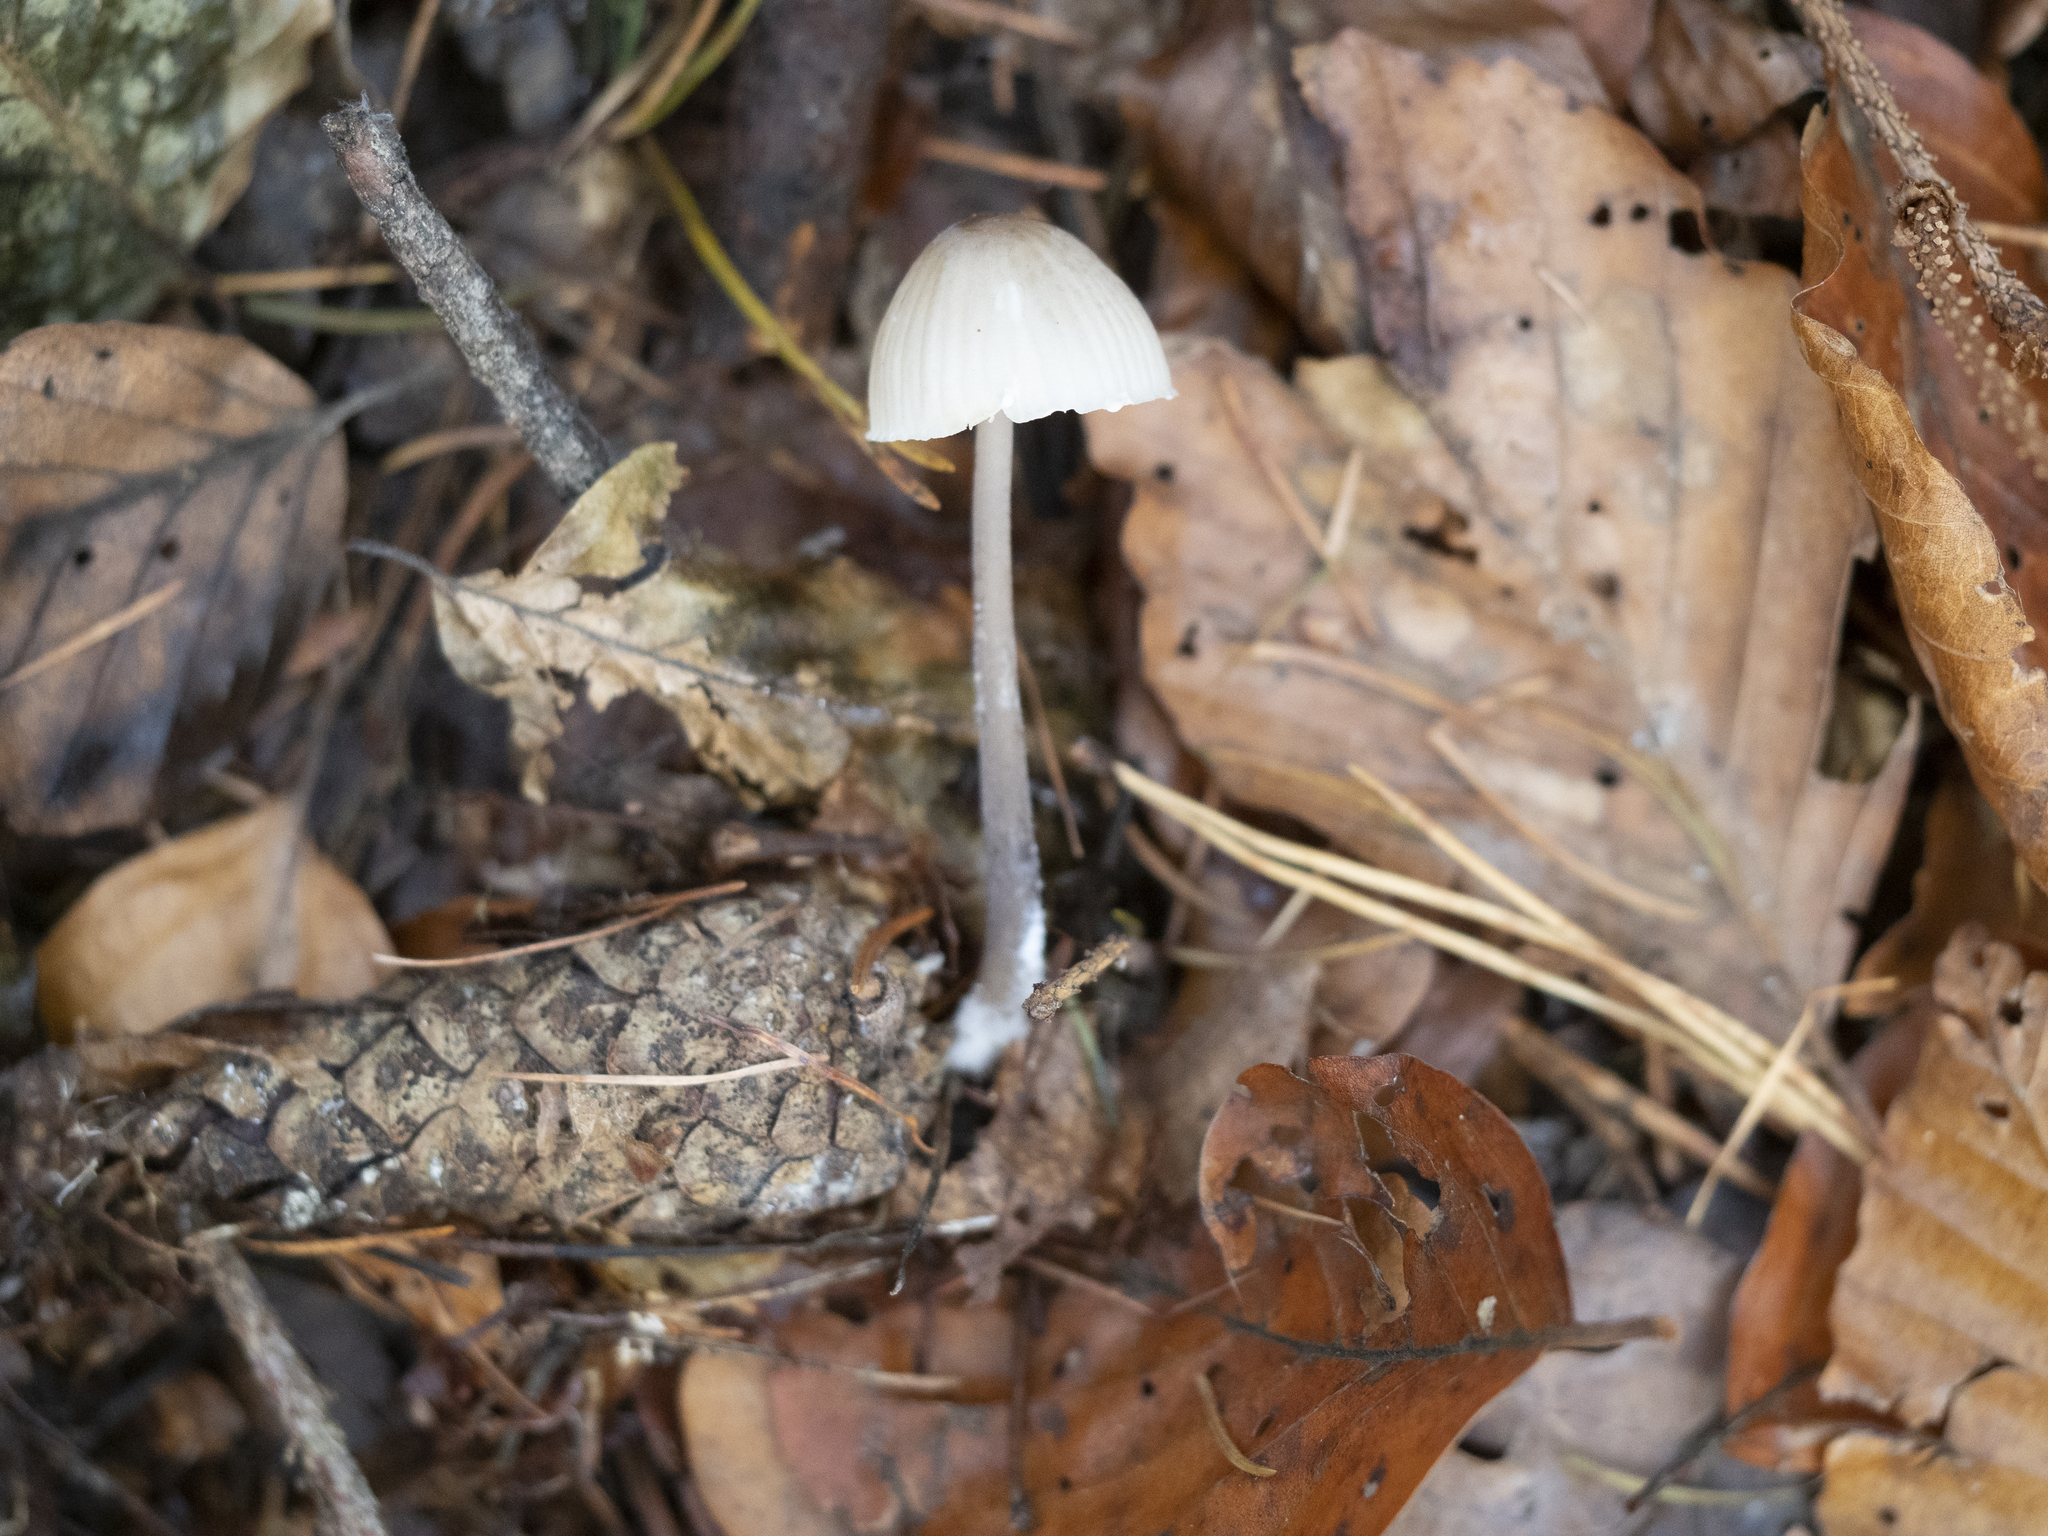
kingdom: Fungi
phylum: Basidiomycota
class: Agaricomycetes
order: Agaricales
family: Mycenaceae
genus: Mycena
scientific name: Mycena galopus
